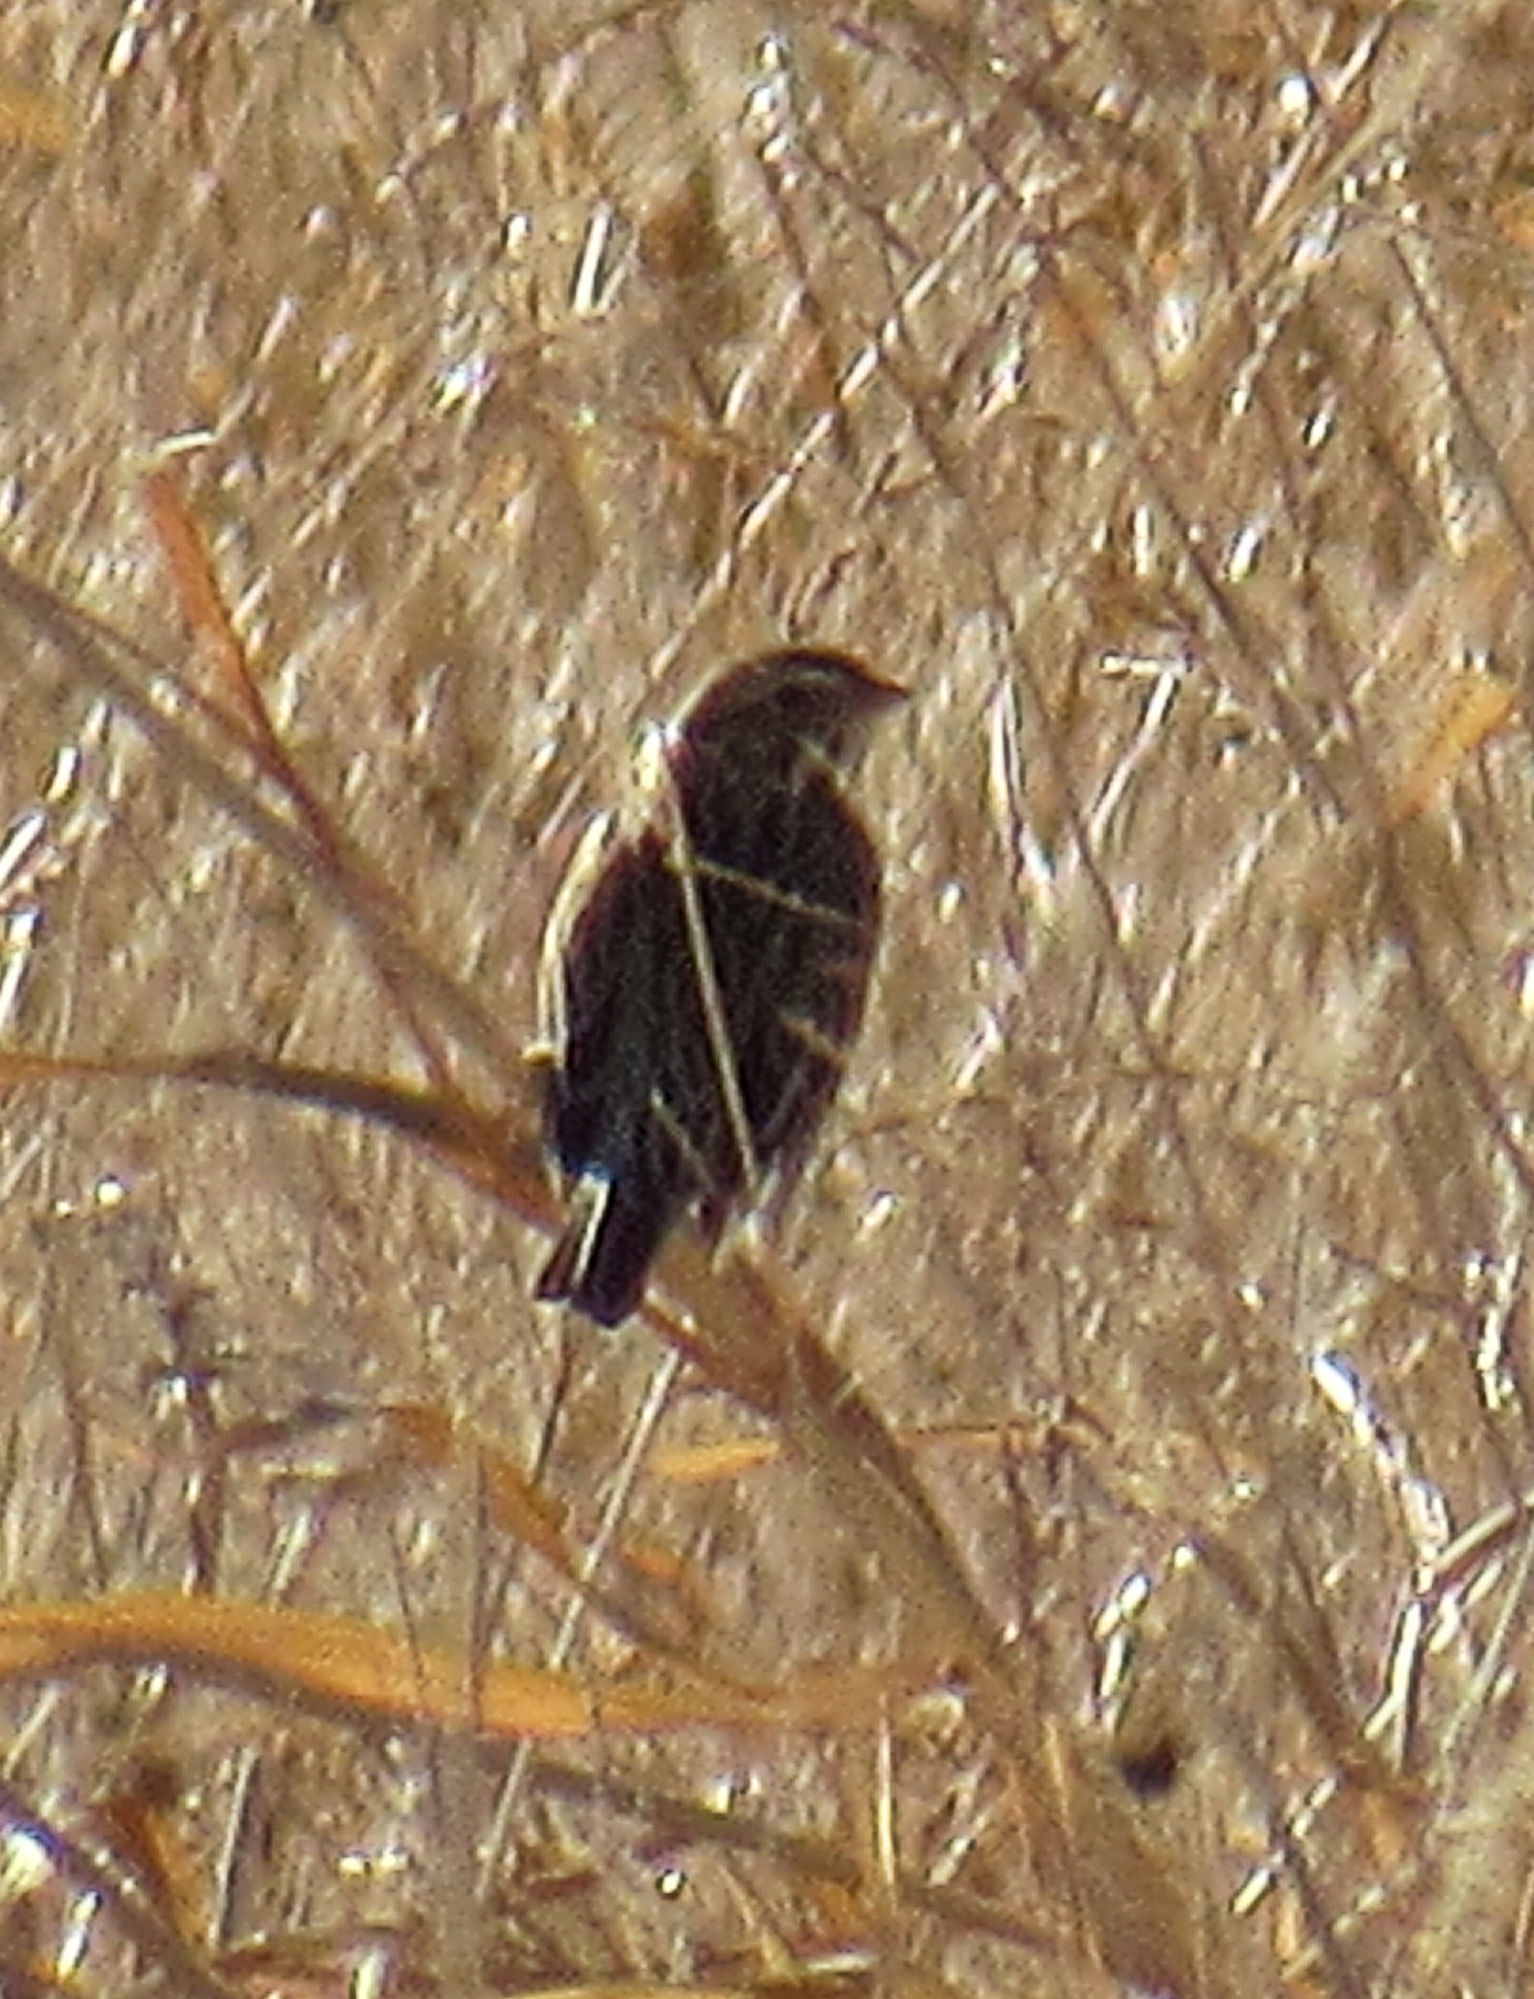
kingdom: Animalia
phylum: Chordata
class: Aves
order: Passeriformes
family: Passerellidae
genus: Passerculus
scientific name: Passerculus sandwichensis
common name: Savannah sparrow
